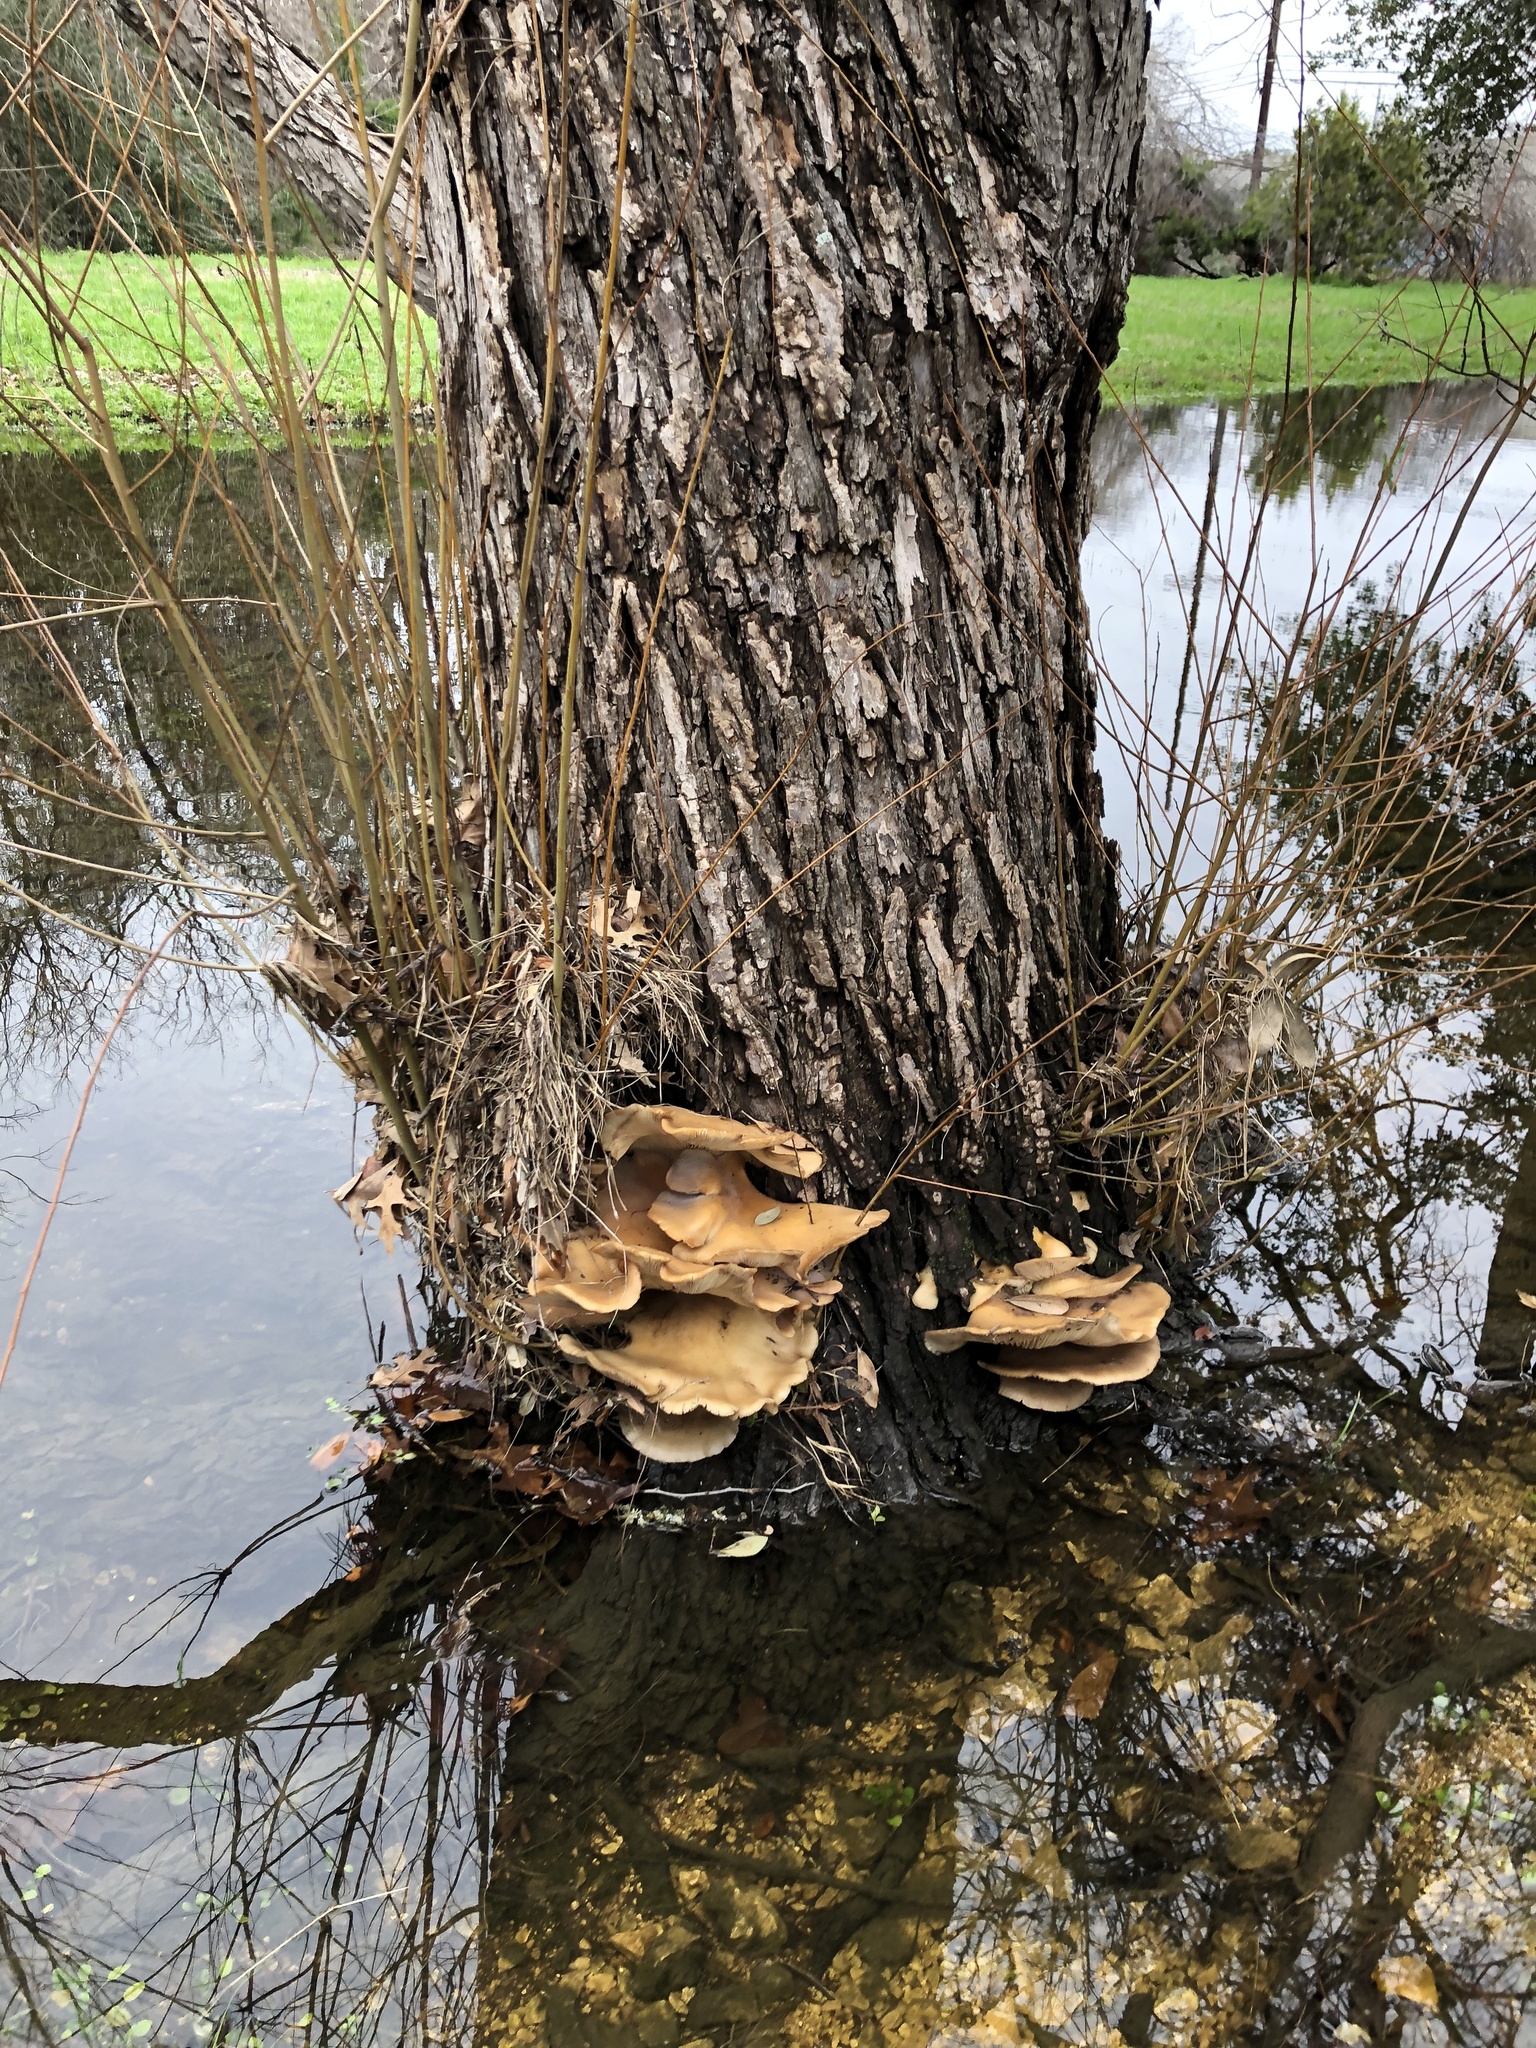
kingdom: Fungi
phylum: Basidiomycota
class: Agaricomycetes
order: Agaricales
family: Pleurotaceae
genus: Pleurotus
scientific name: Pleurotus ostreatus
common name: Oyster mushroom
